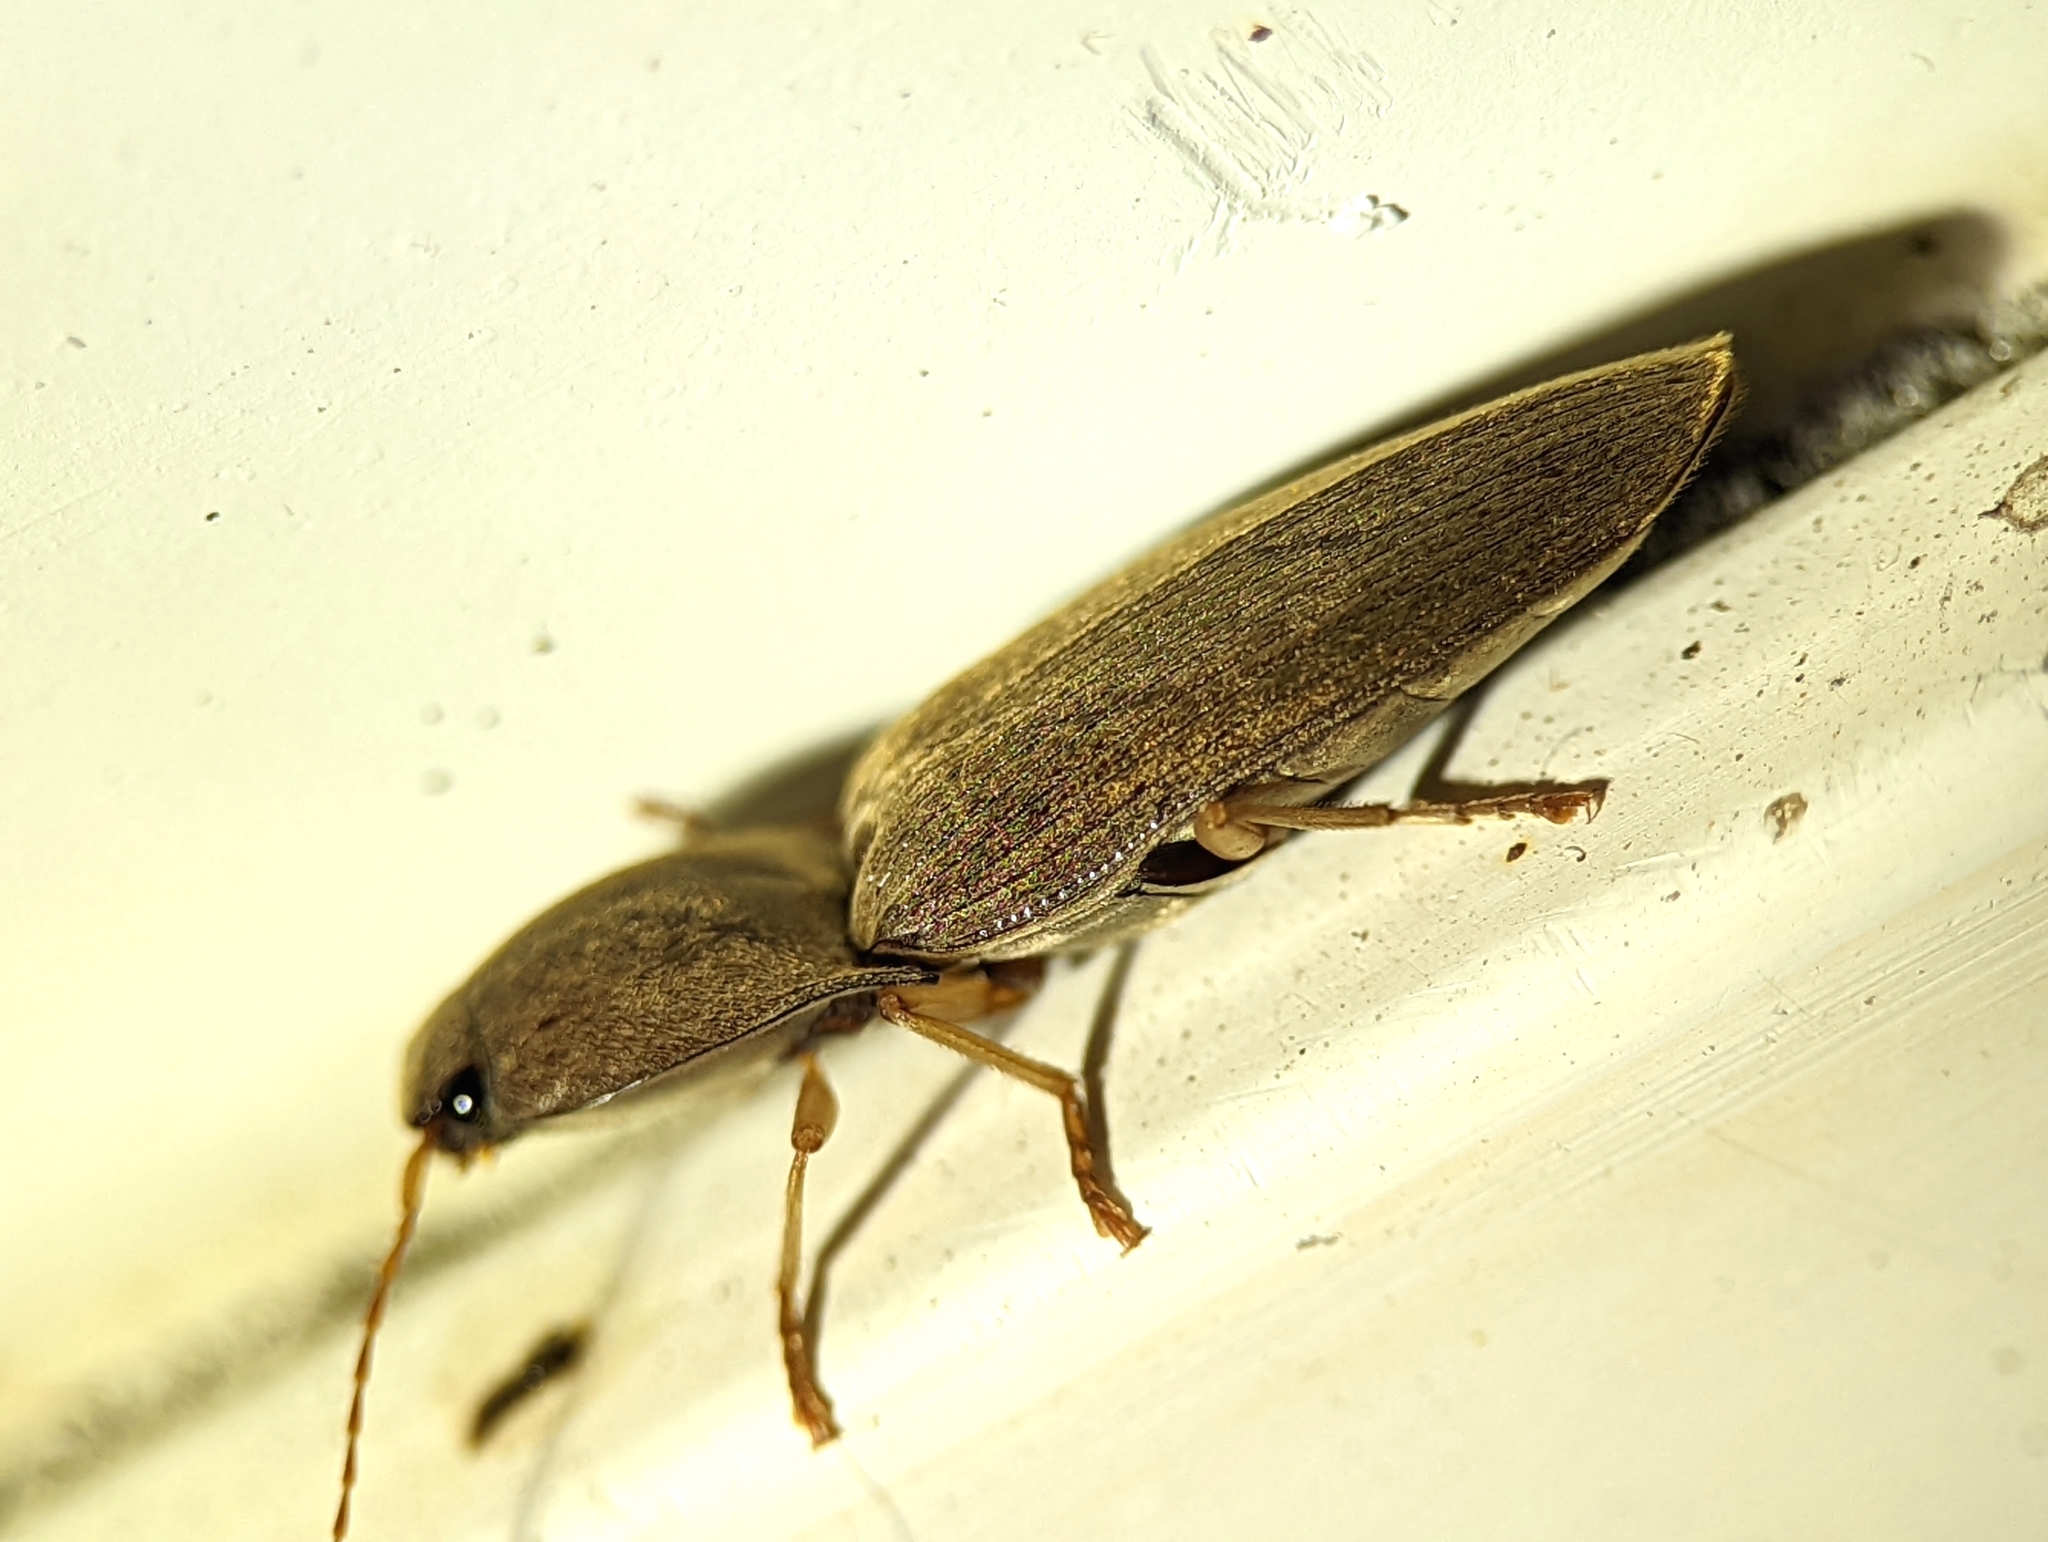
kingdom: Animalia
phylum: Arthropoda
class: Insecta
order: Coleoptera
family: Elateridae
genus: Monocrepidius
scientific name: Monocrepidius lividus
